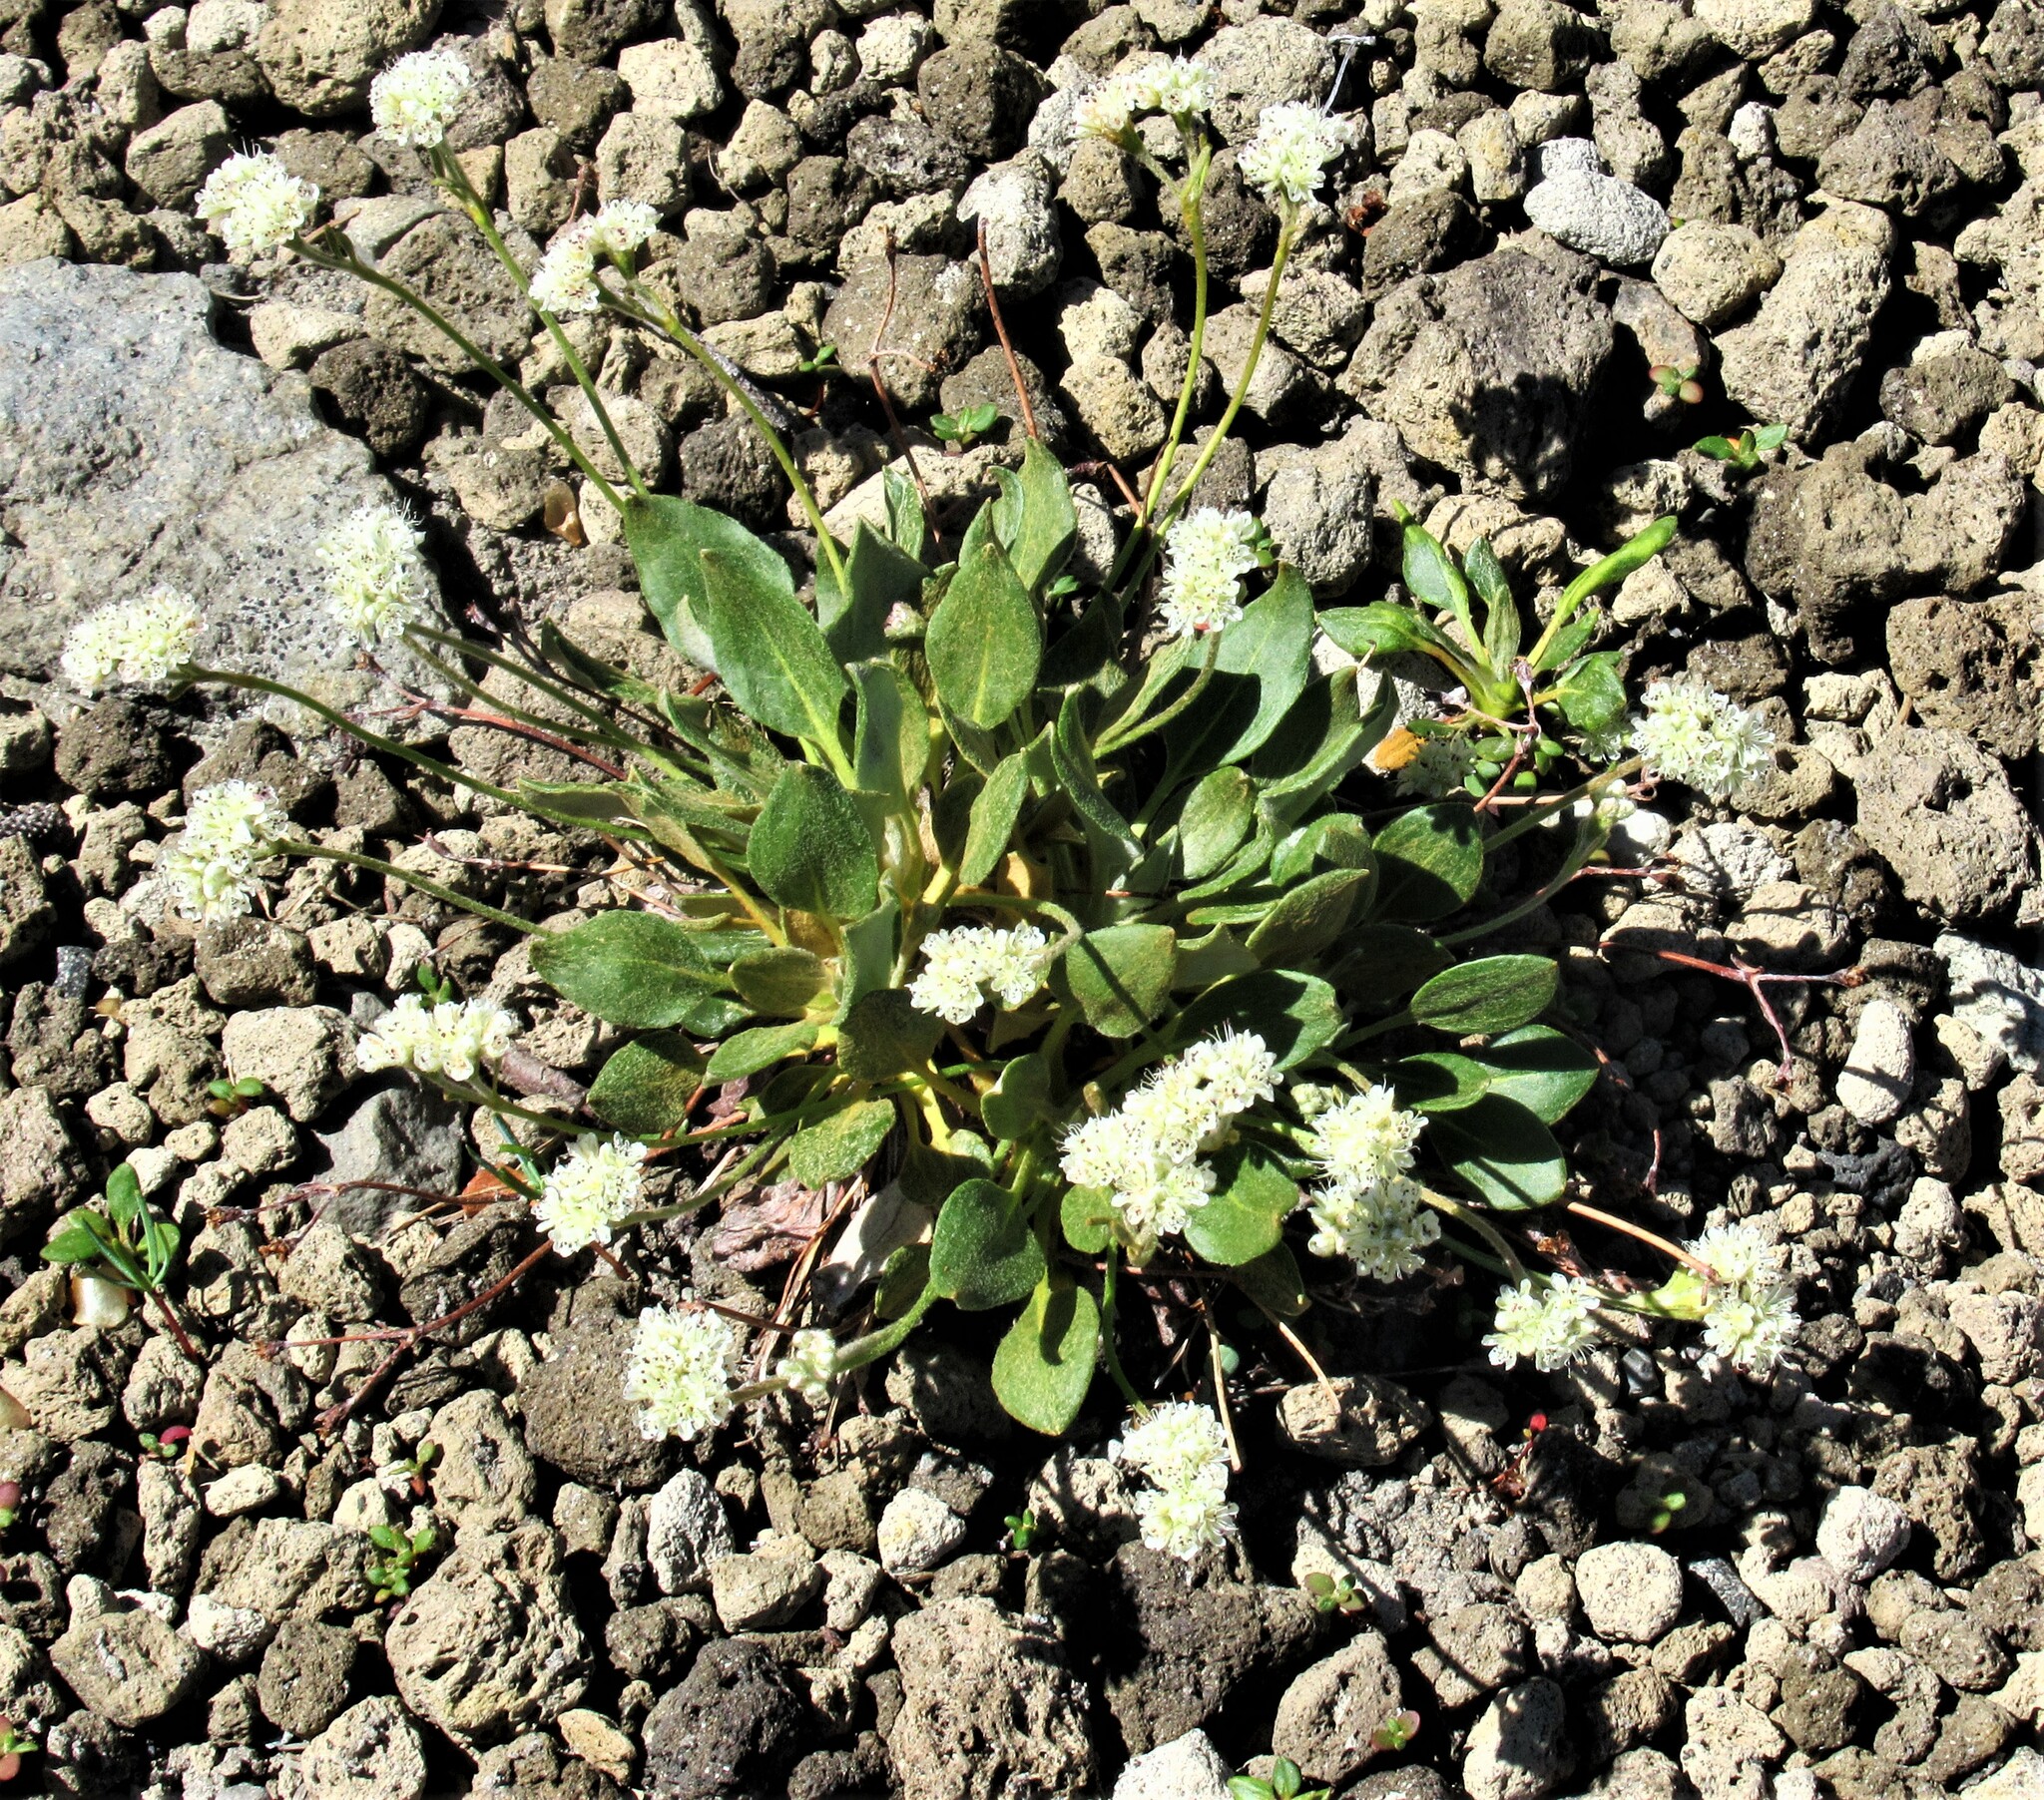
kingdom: Plantae
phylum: Tracheophyta
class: Magnoliopsida
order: Caryophyllales
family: Polygonaceae
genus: Eriogonum
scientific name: Eriogonum pyrolifolium
